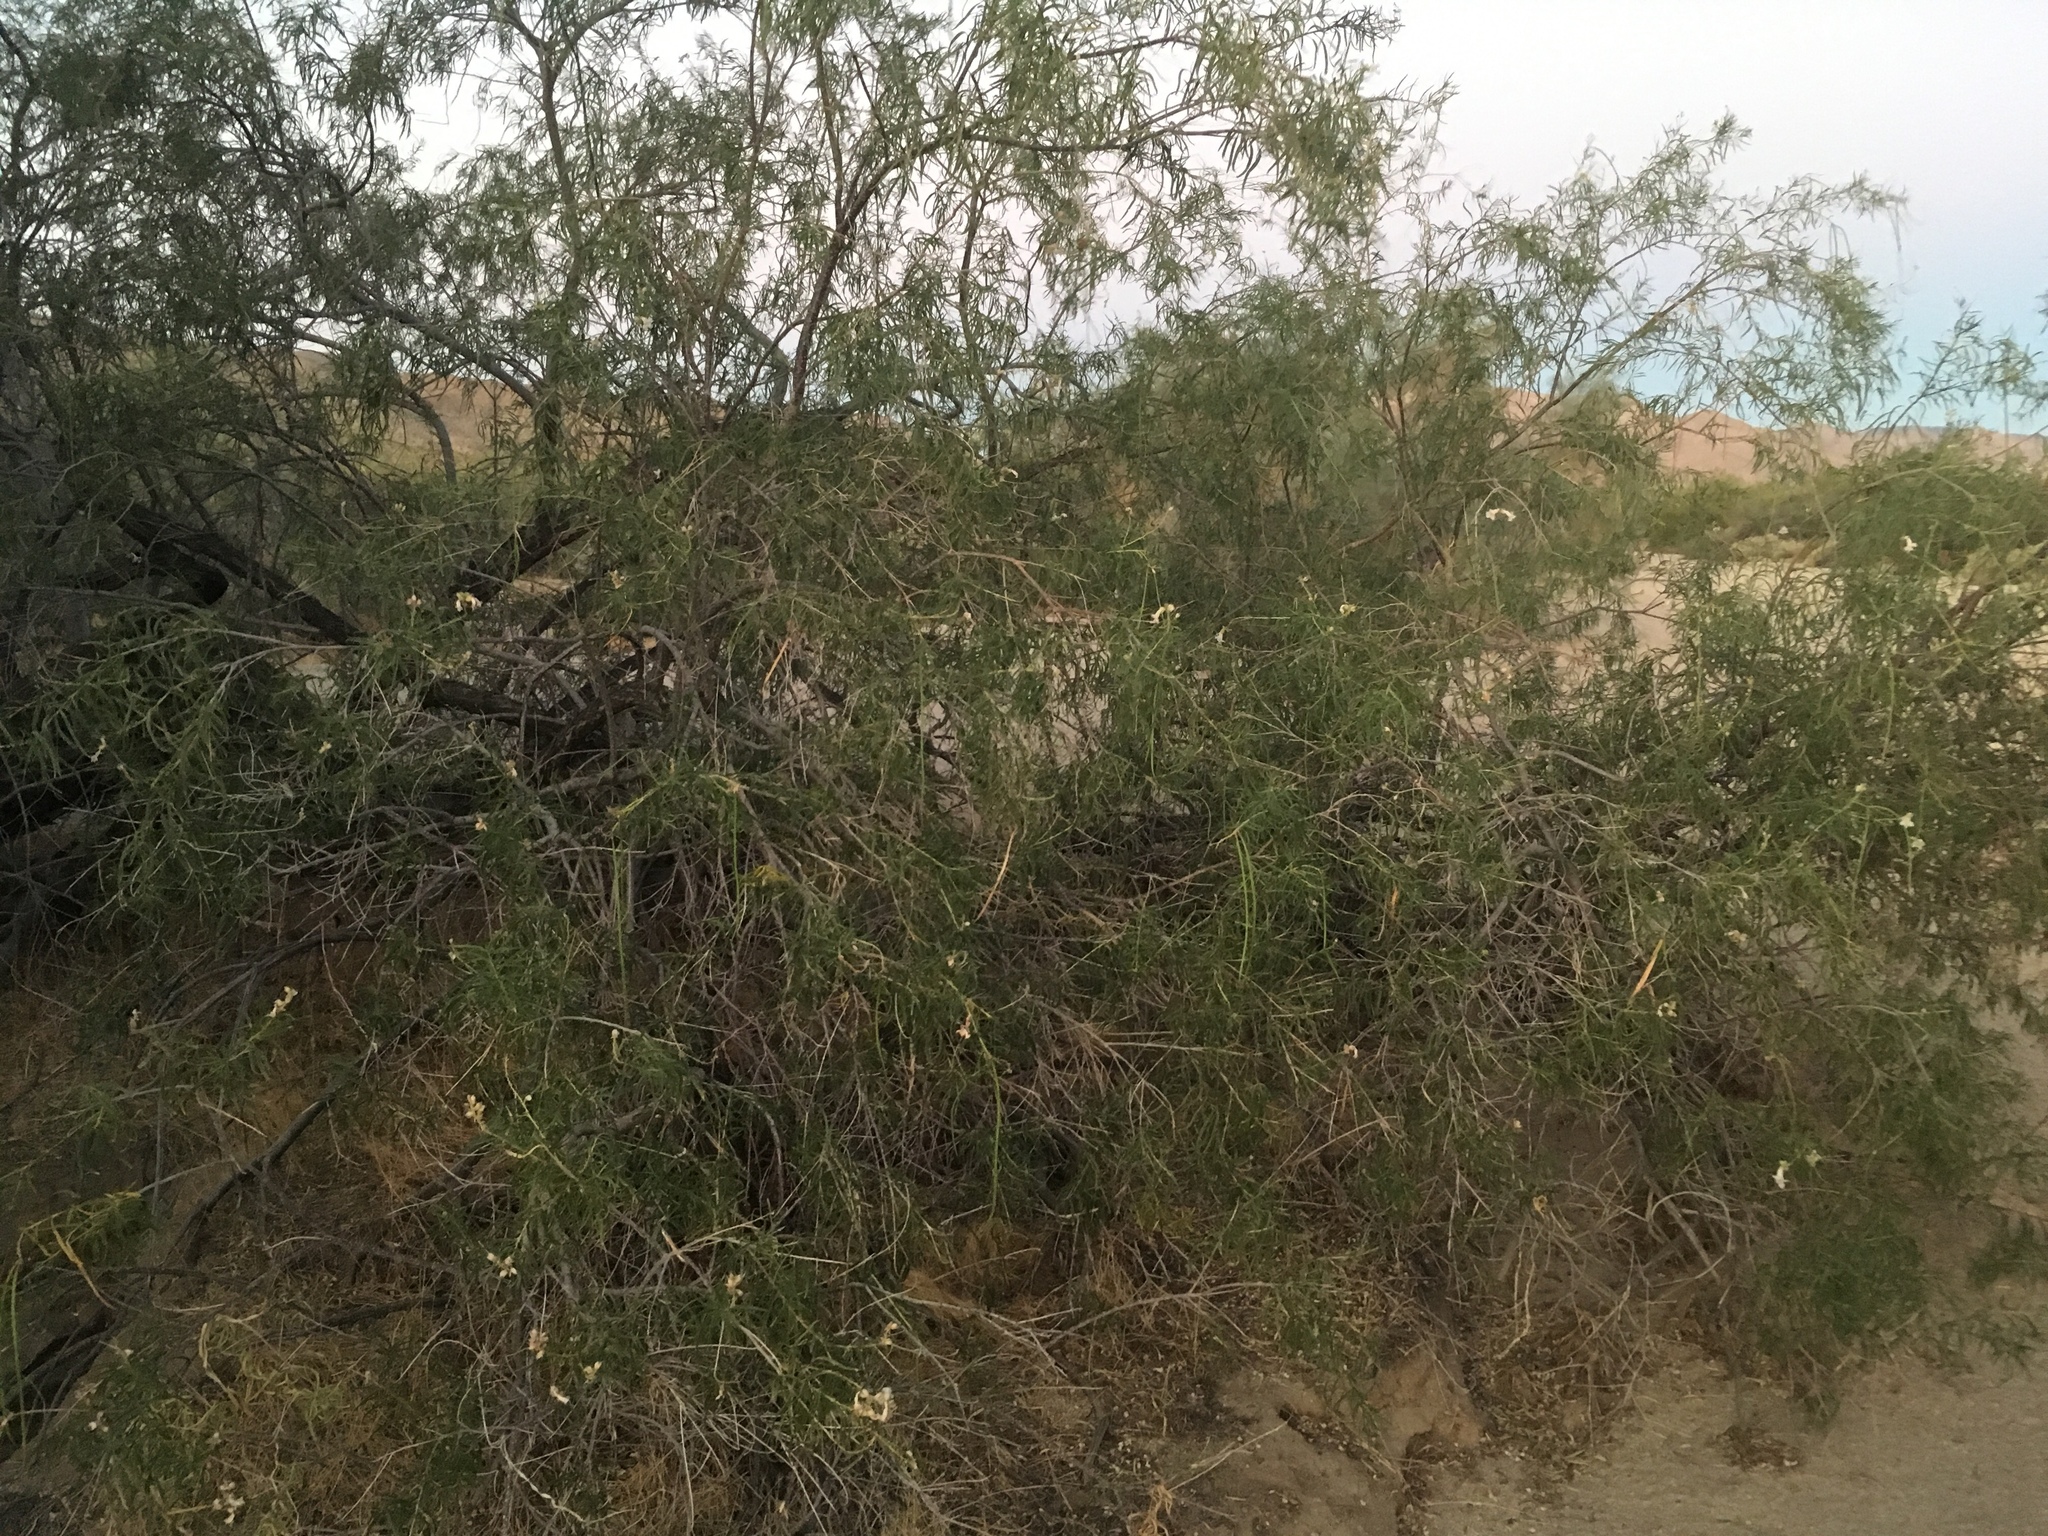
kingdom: Plantae
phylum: Tracheophyta
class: Magnoliopsida
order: Lamiales
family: Bignoniaceae
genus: Chilopsis
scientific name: Chilopsis linearis
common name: Desert-willow
